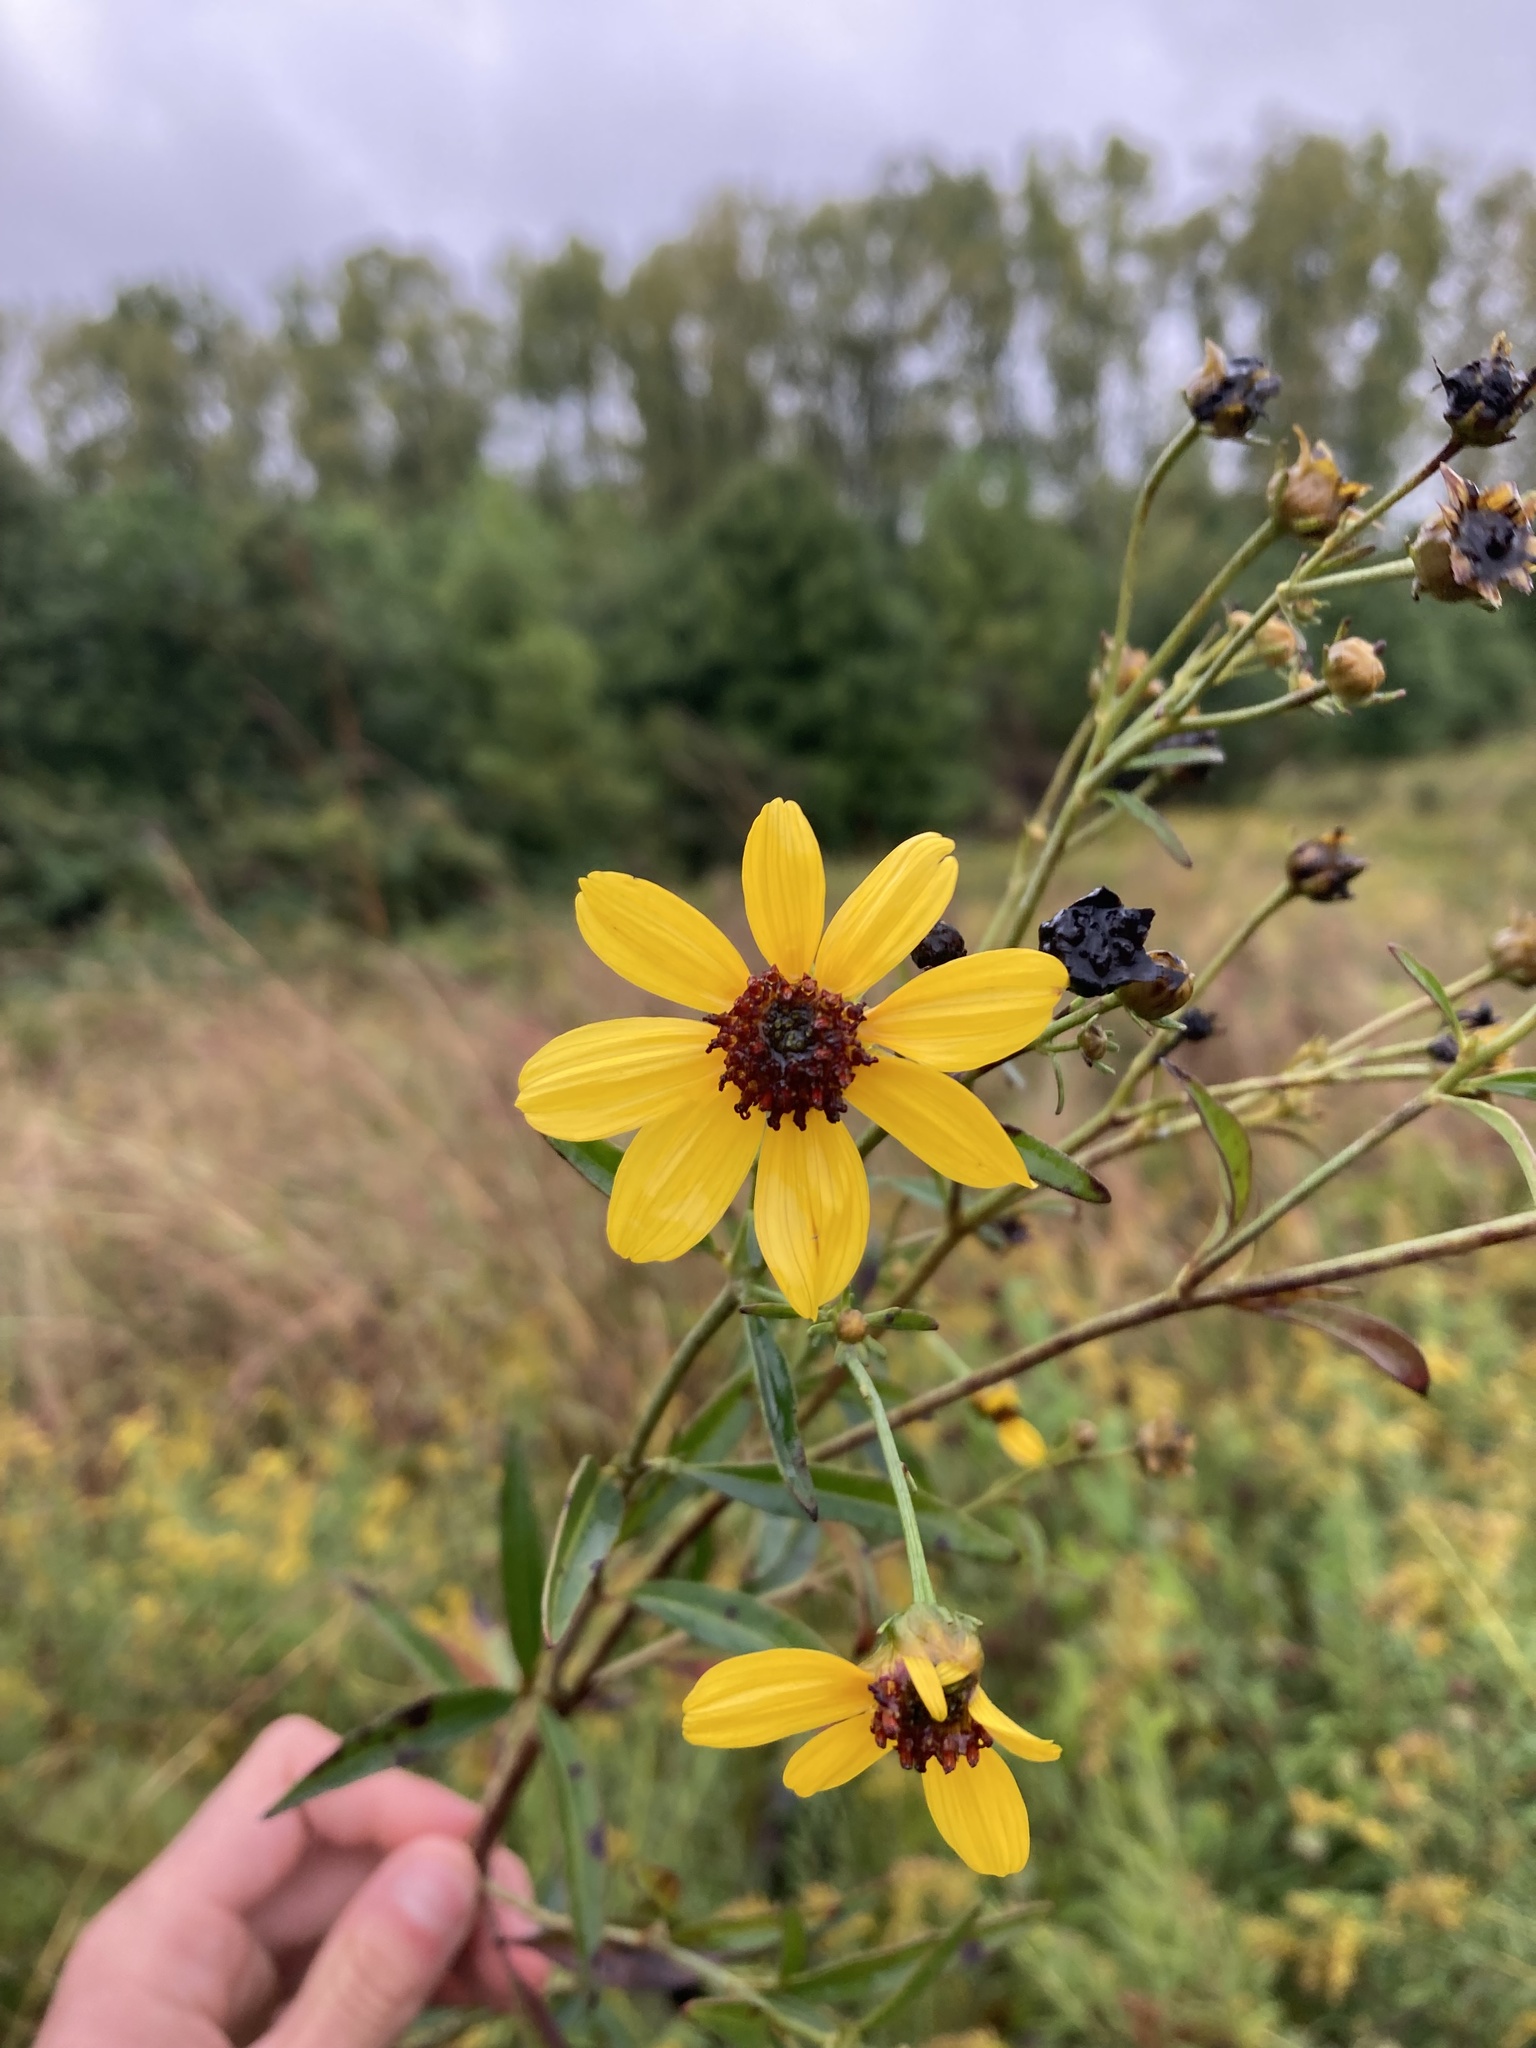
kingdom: Plantae
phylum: Tracheophyta
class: Magnoliopsida
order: Asterales
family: Asteraceae
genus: Coreopsis
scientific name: Coreopsis tripteris
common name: Tall coreopsis
